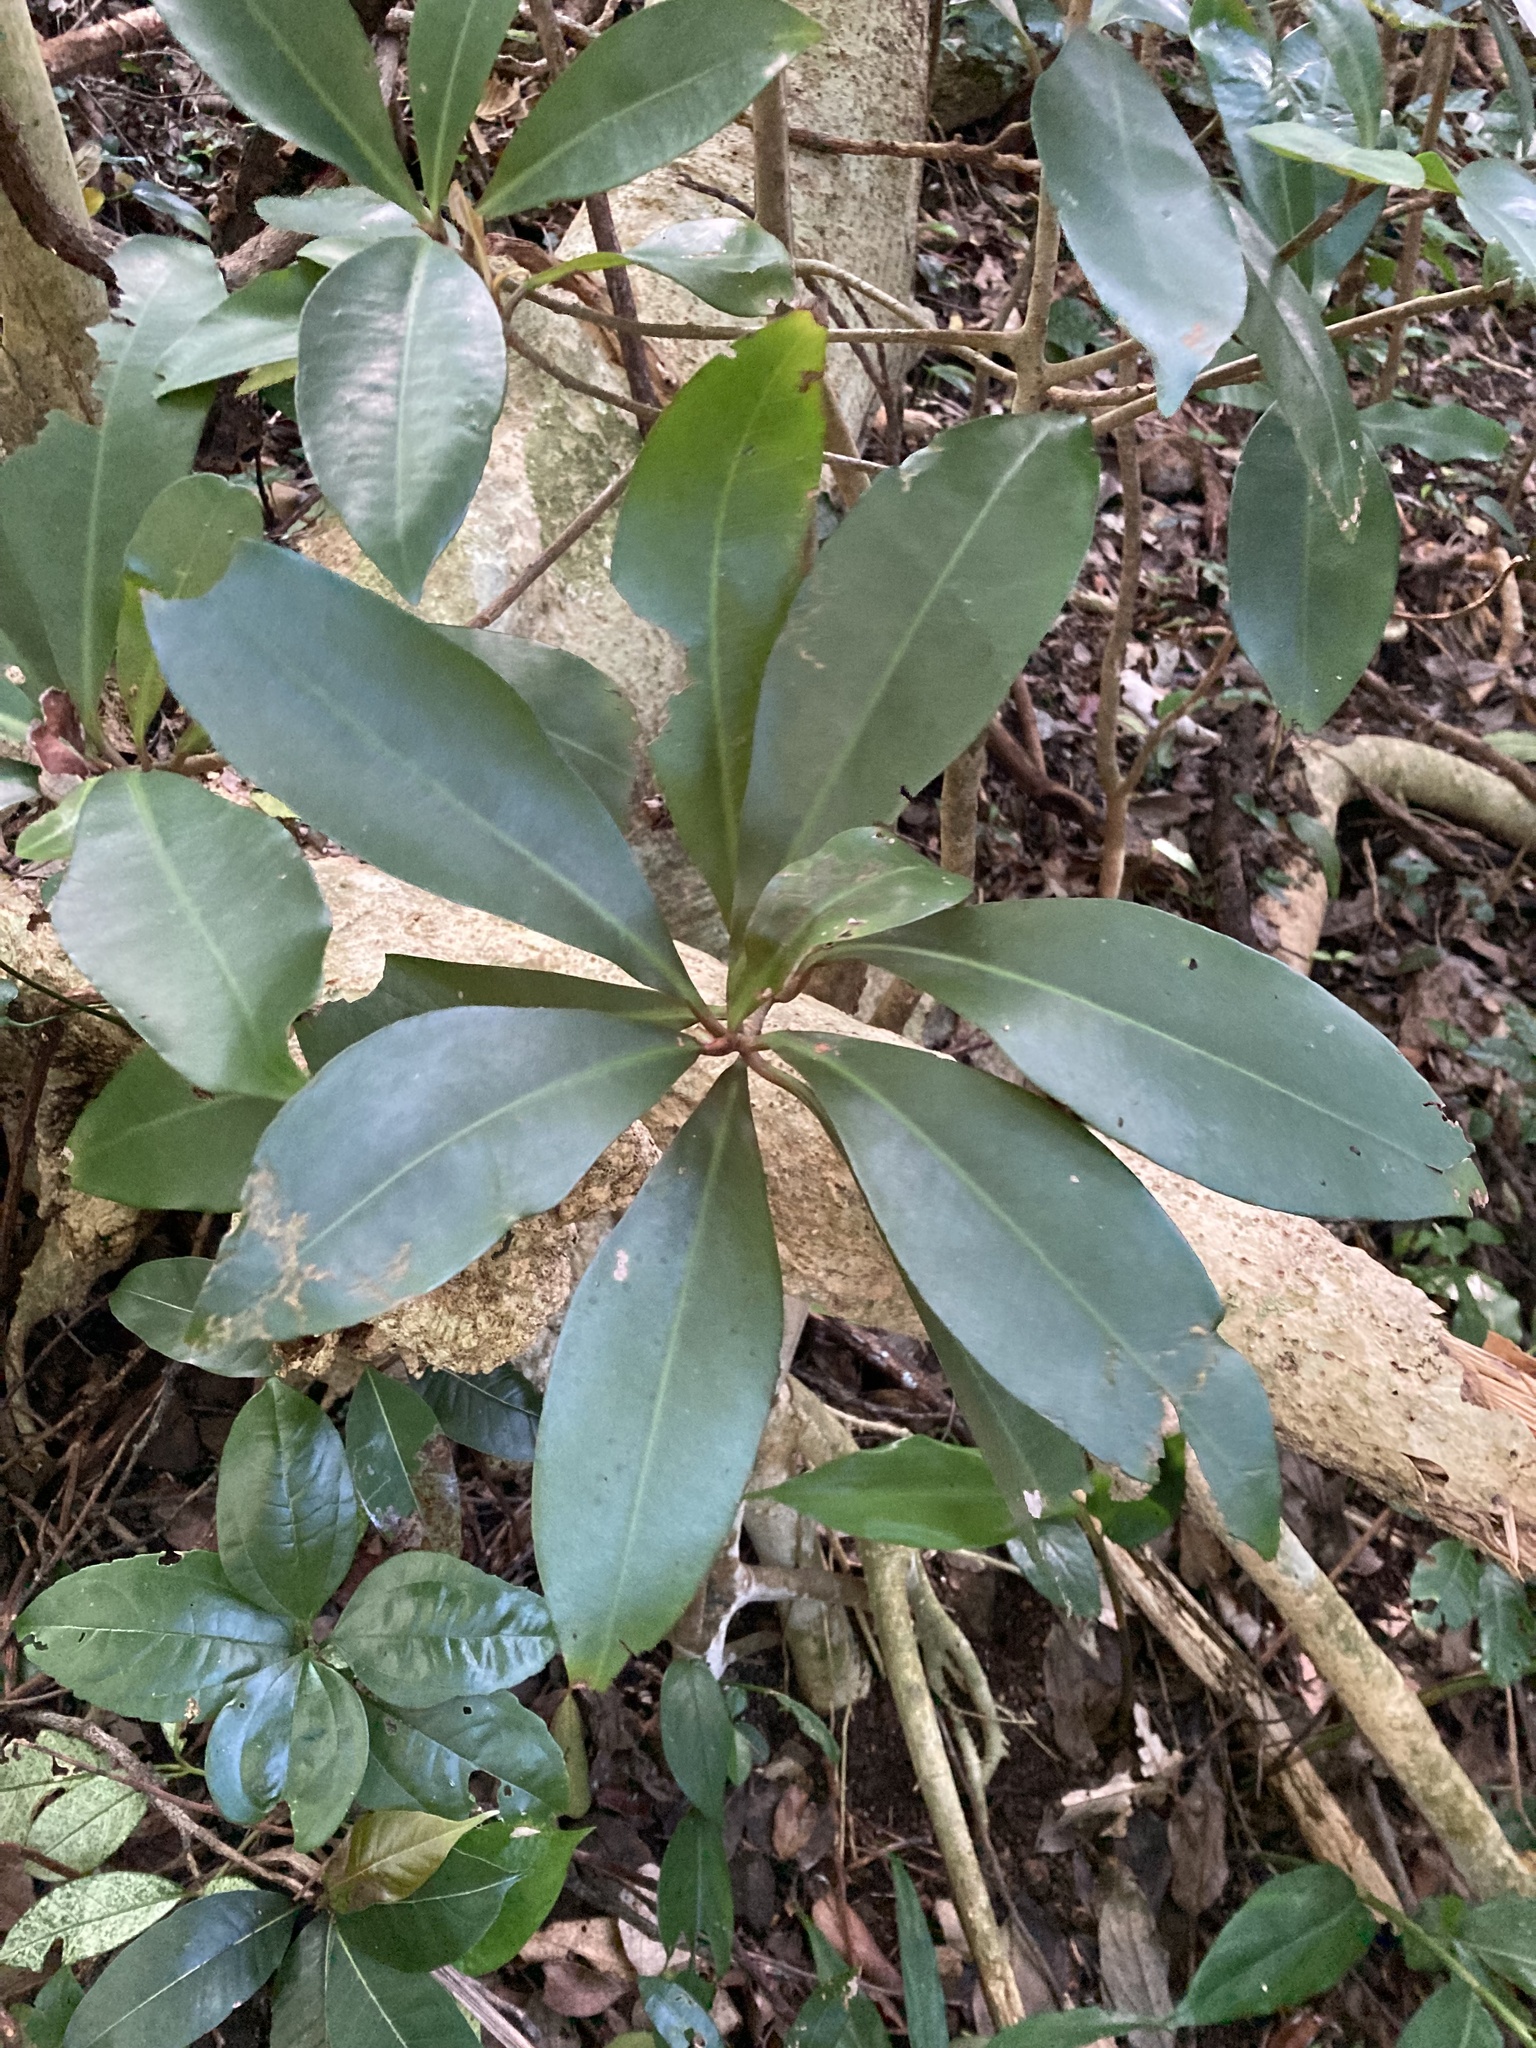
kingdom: Plantae
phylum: Tracheophyta
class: Magnoliopsida
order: Ericales
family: Primulaceae
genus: Ardisia
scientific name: Ardisia sieboldii
